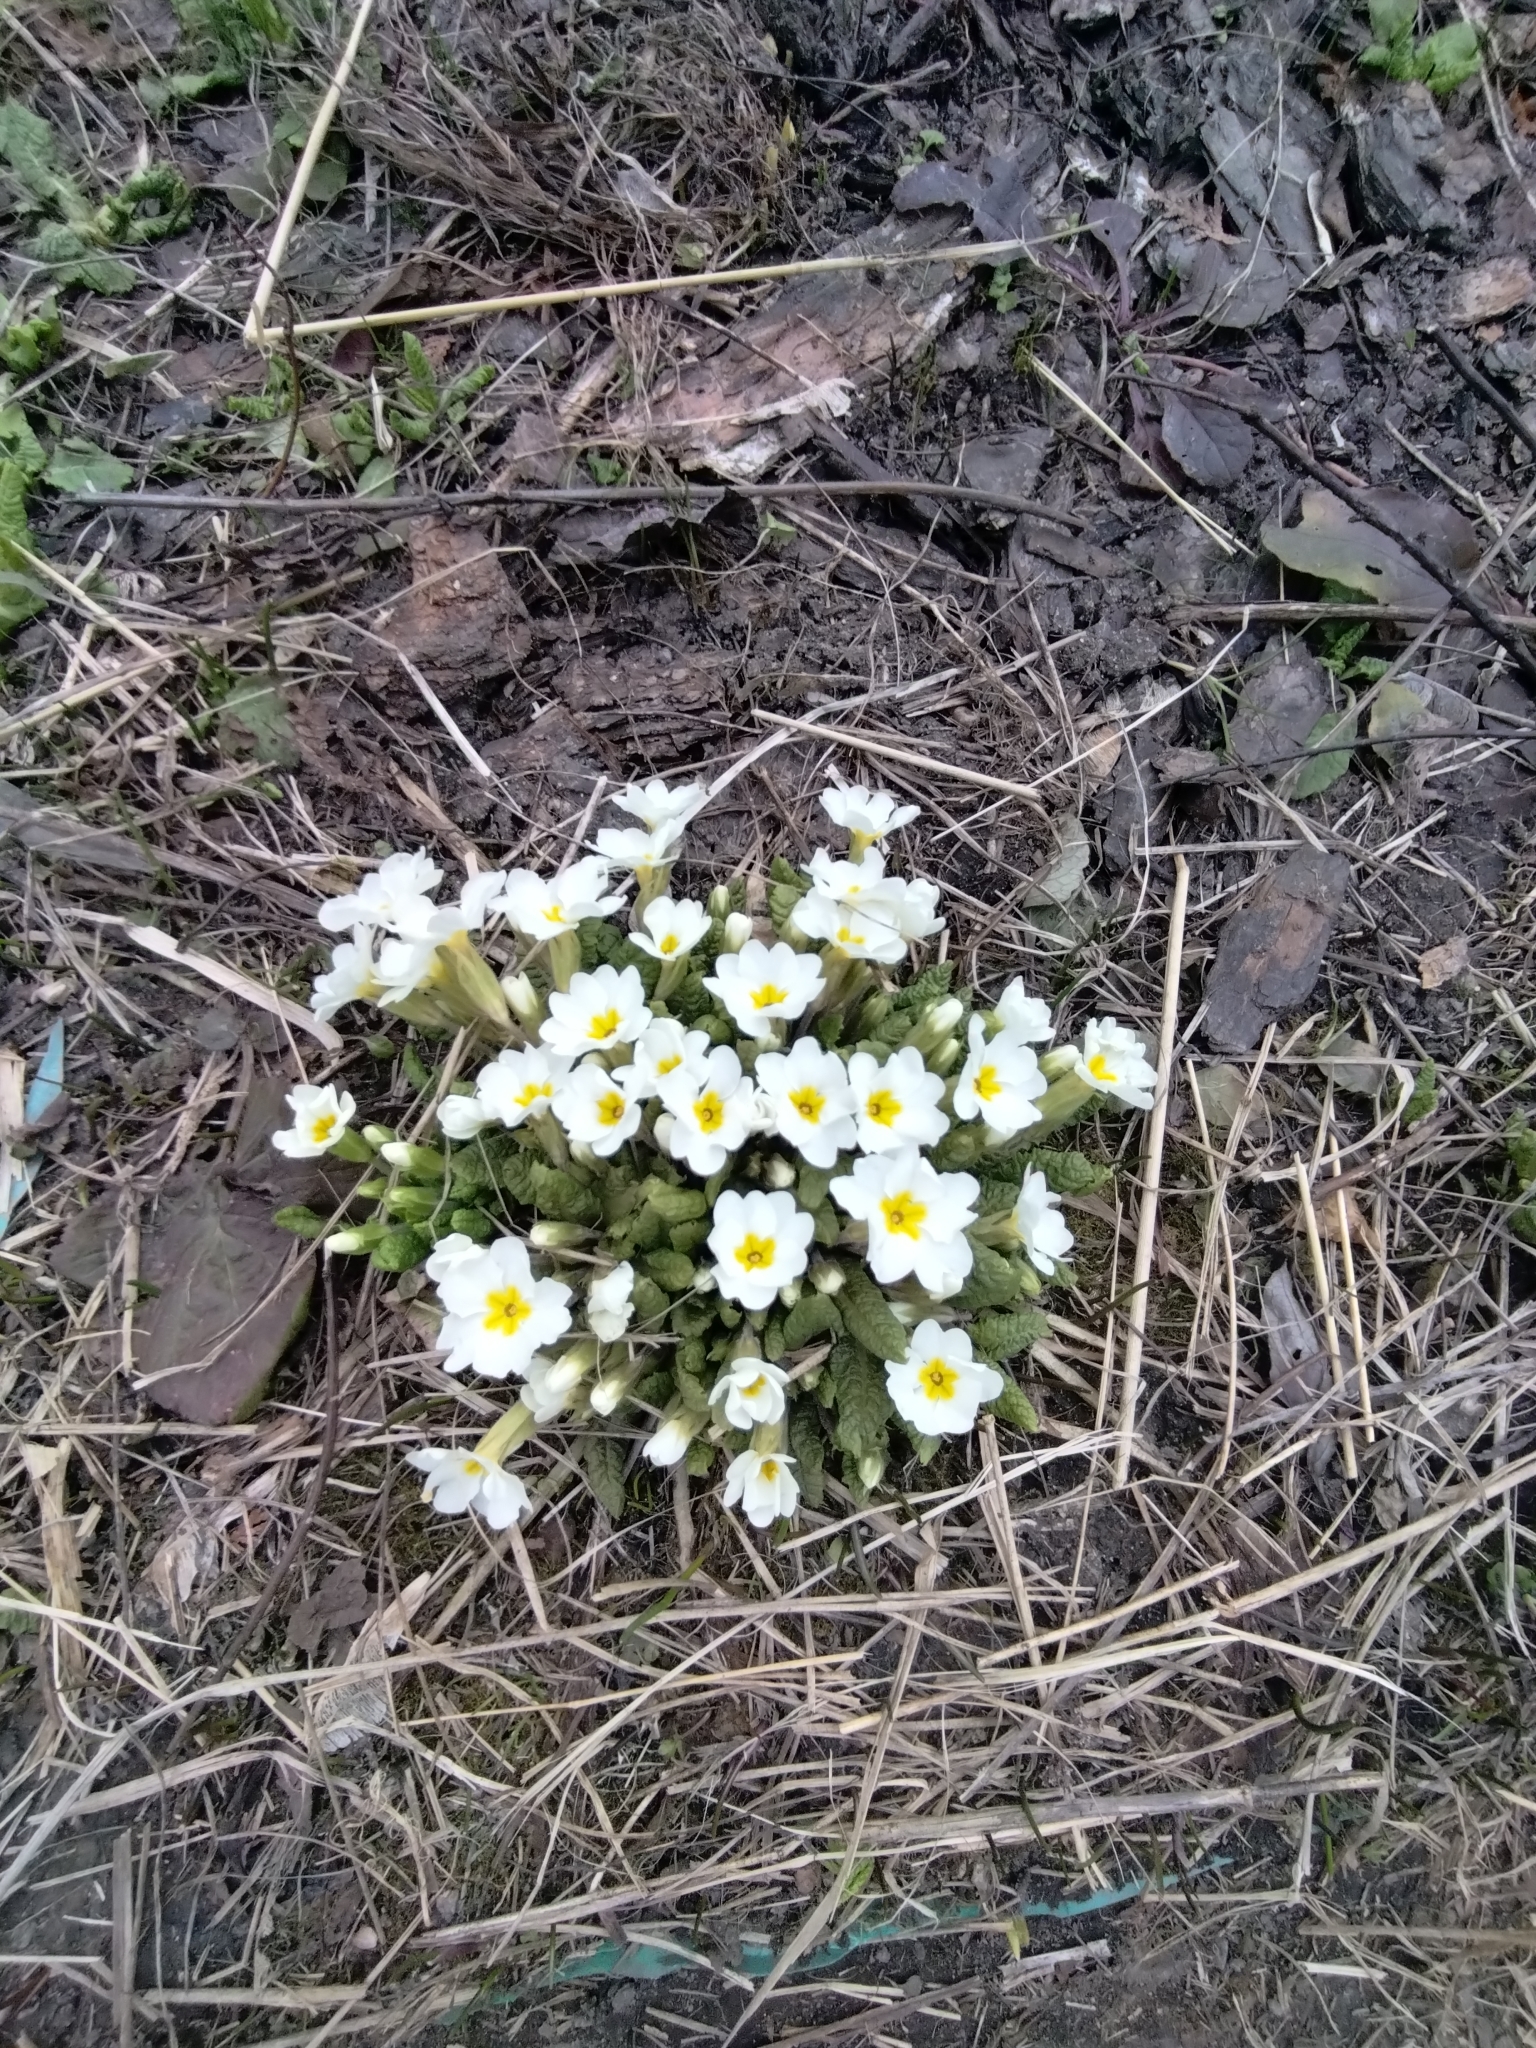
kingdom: Plantae
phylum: Tracheophyta
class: Magnoliopsida
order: Ericales
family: Primulaceae
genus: Primula
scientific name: Primula vulgaris
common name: Primrose
